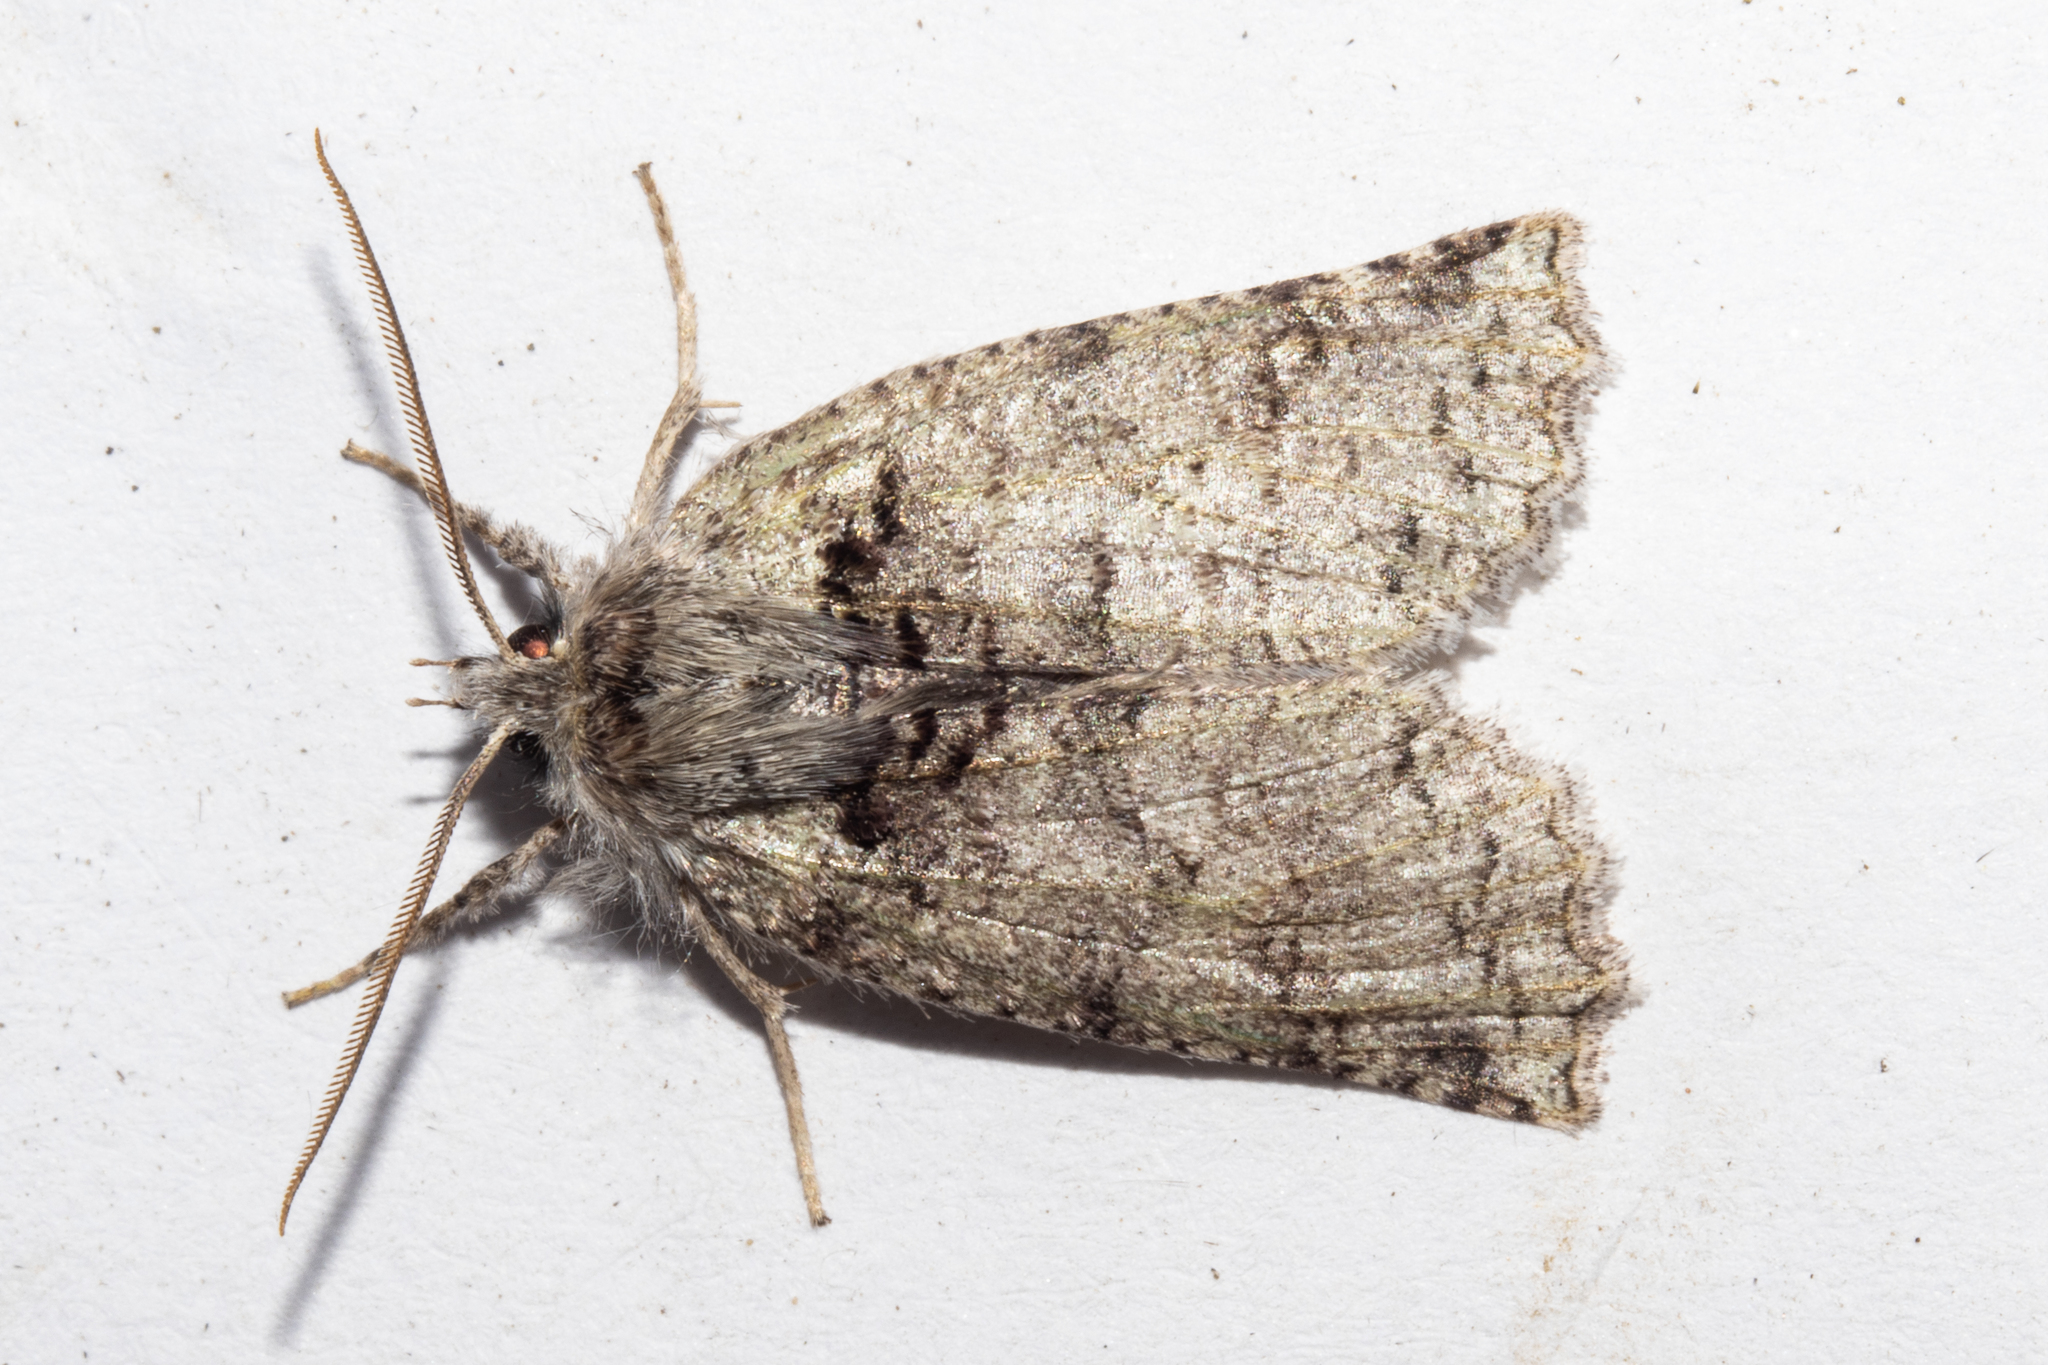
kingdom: Animalia
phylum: Arthropoda
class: Insecta
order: Lepidoptera
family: Geometridae
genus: Declana
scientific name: Declana floccosa
